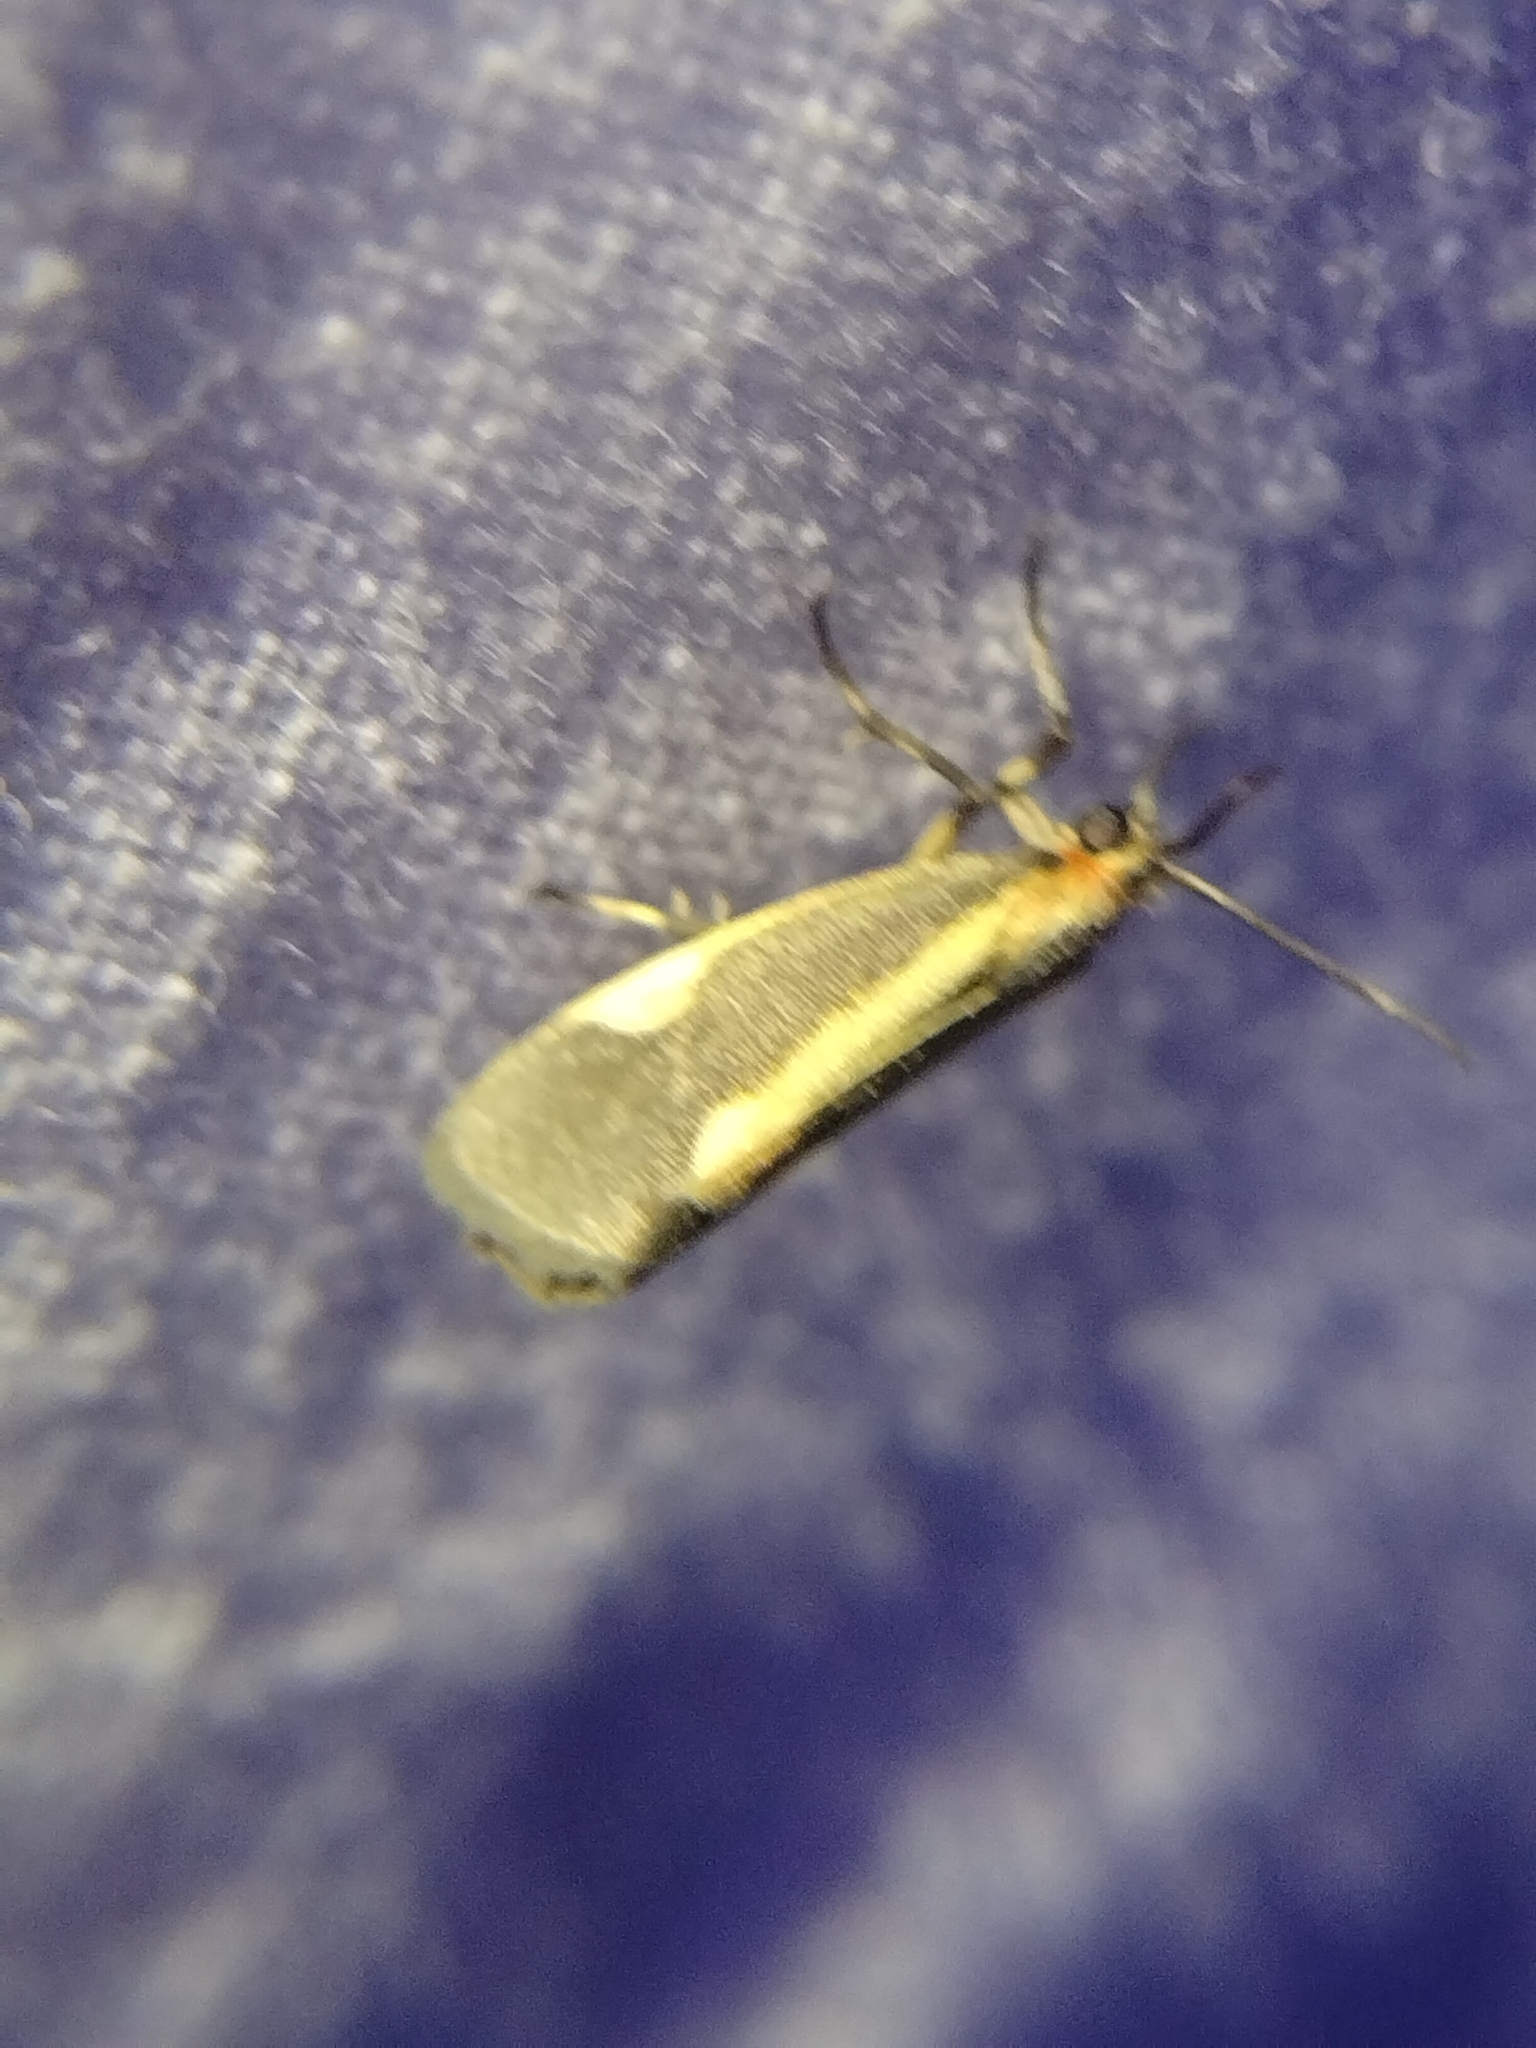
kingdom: Animalia
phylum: Arthropoda
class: Insecta
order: Lepidoptera
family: Erebidae
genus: Cisthene
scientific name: Cisthene packardii
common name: Packard's lichen moth
